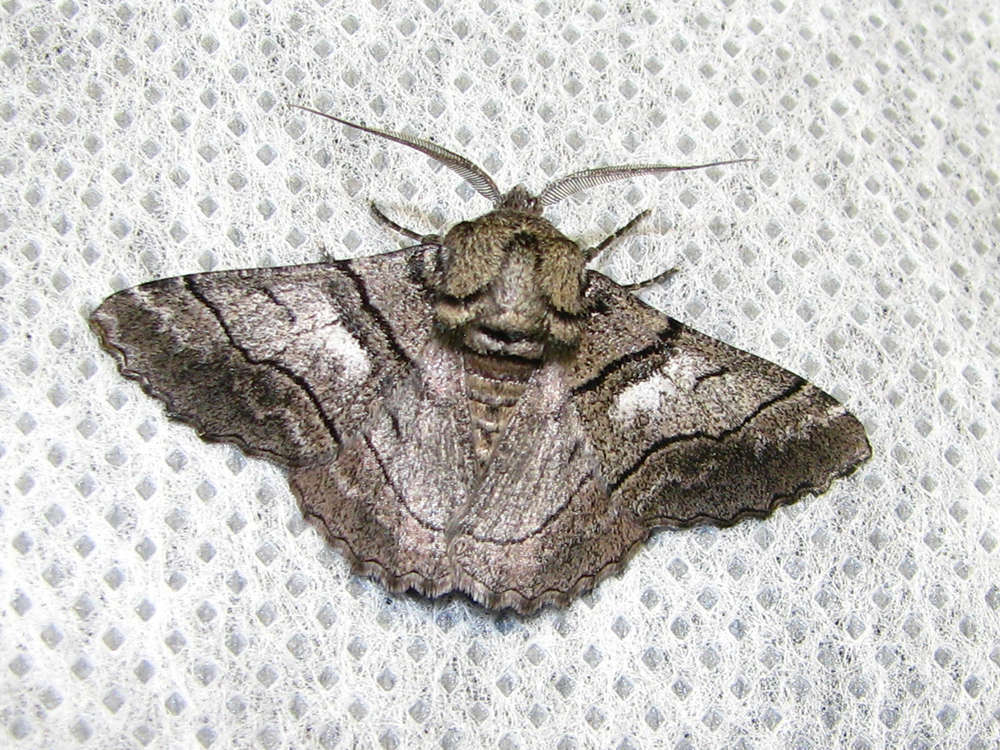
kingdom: Animalia
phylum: Arthropoda
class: Insecta
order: Lepidoptera
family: Geometridae
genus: Hypobapta
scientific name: Hypobapta diffundens
